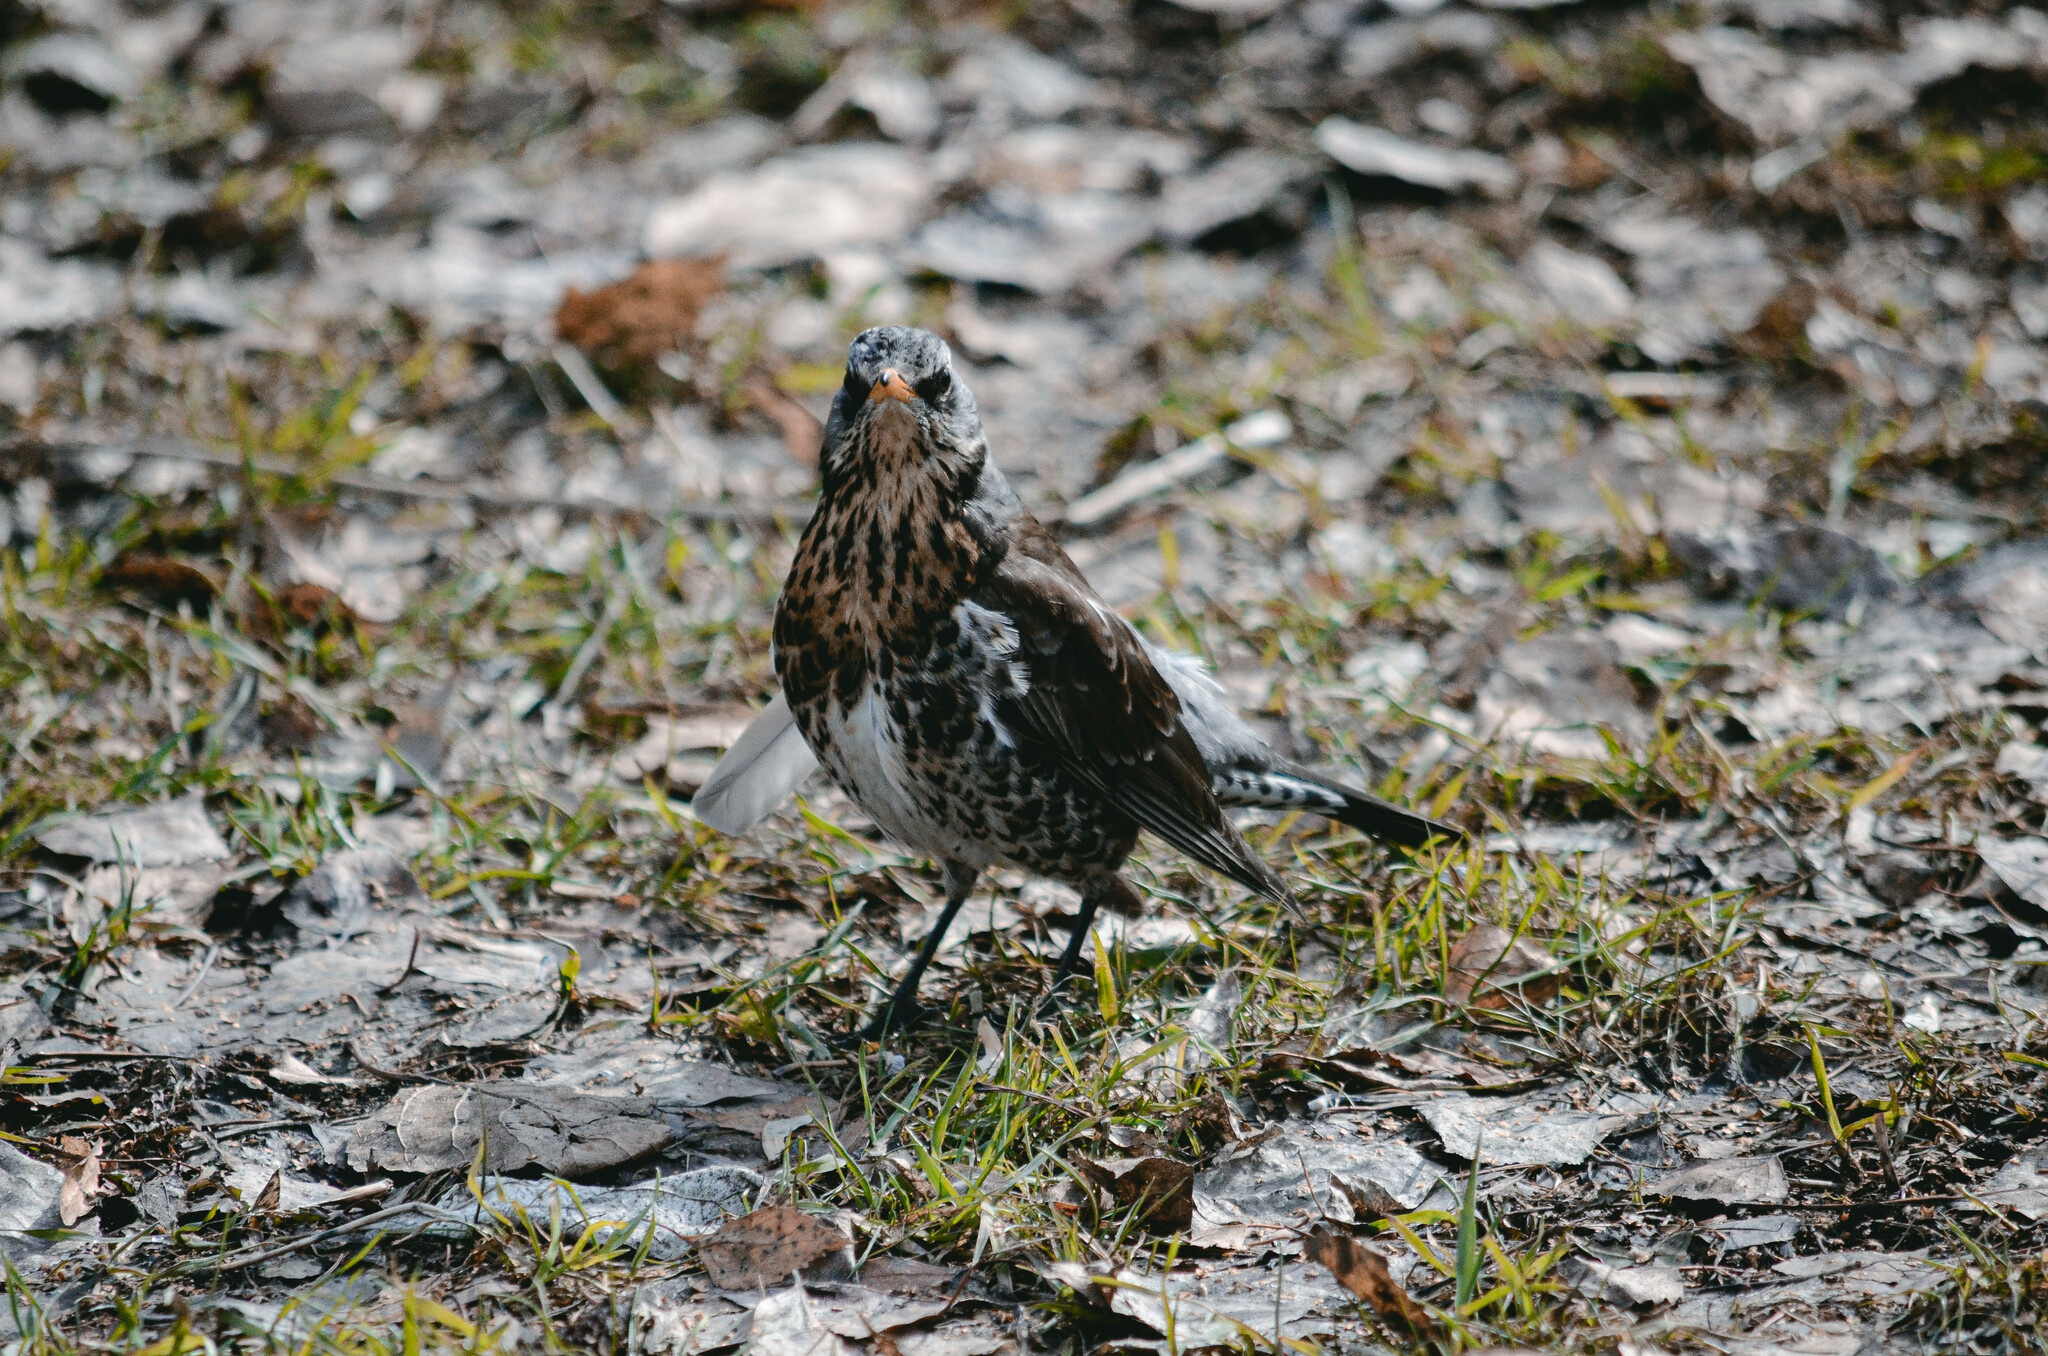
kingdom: Animalia
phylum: Chordata
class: Aves
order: Passeriformes
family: Turdidae
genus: Turdus
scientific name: Turdus pilaris
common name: Fieldfare
